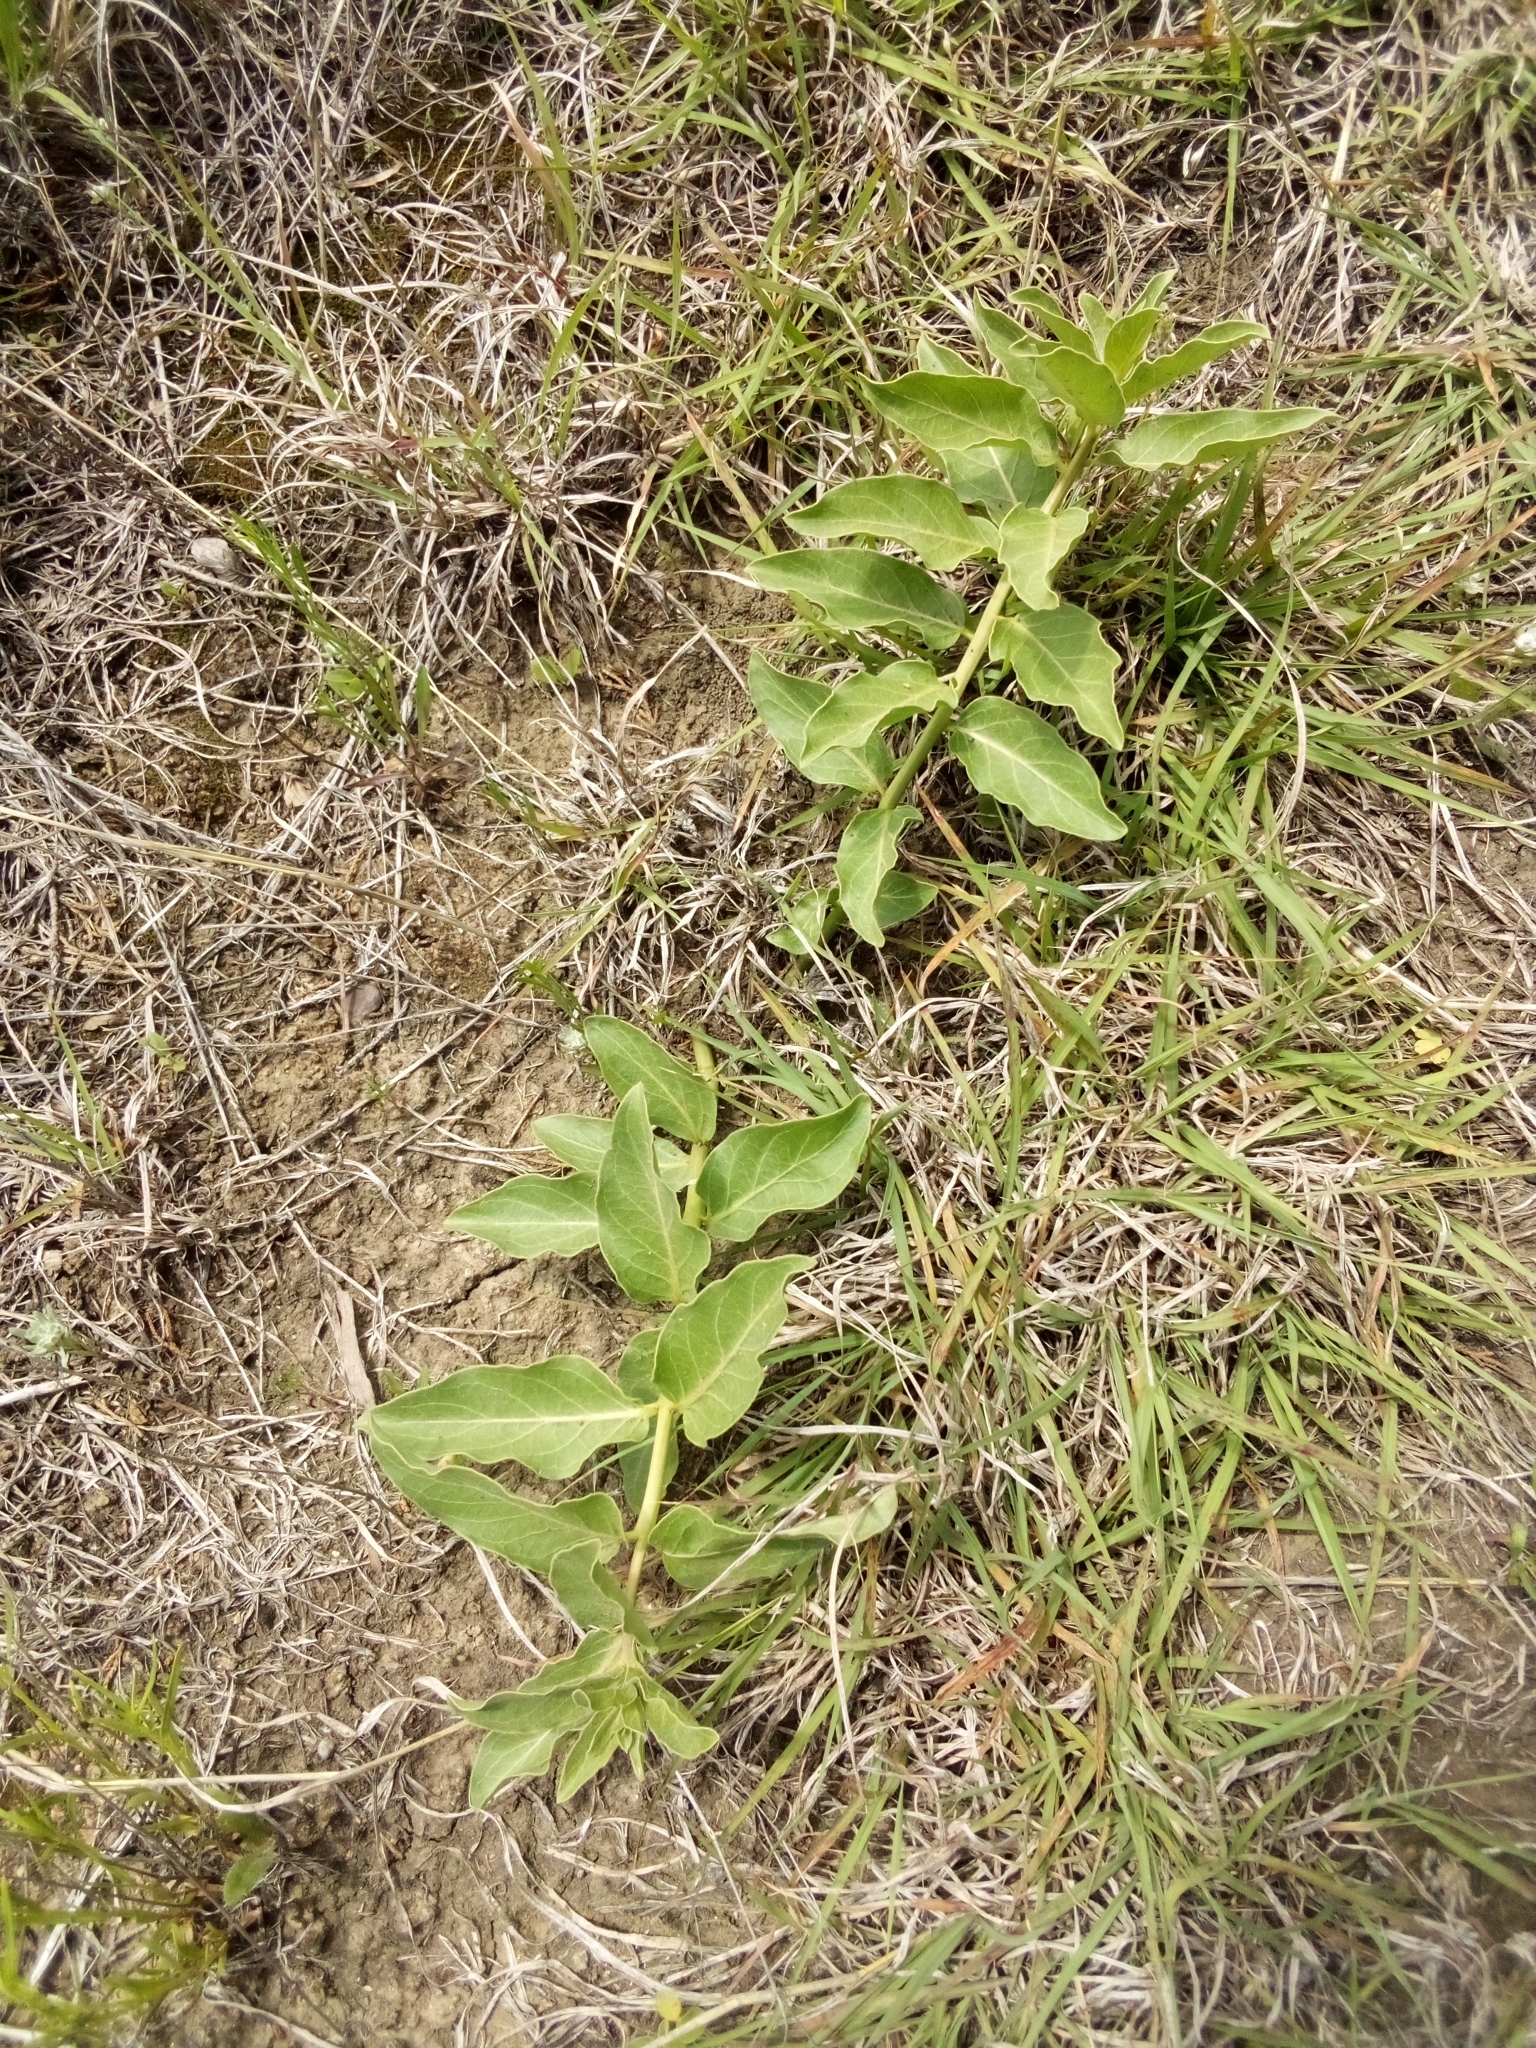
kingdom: Plantae
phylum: Tracheophyta
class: Magnoliopsida
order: Gentianales
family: Apocynaceae
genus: Asclepias
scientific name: Asclepias viridis
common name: Antelope-horns
